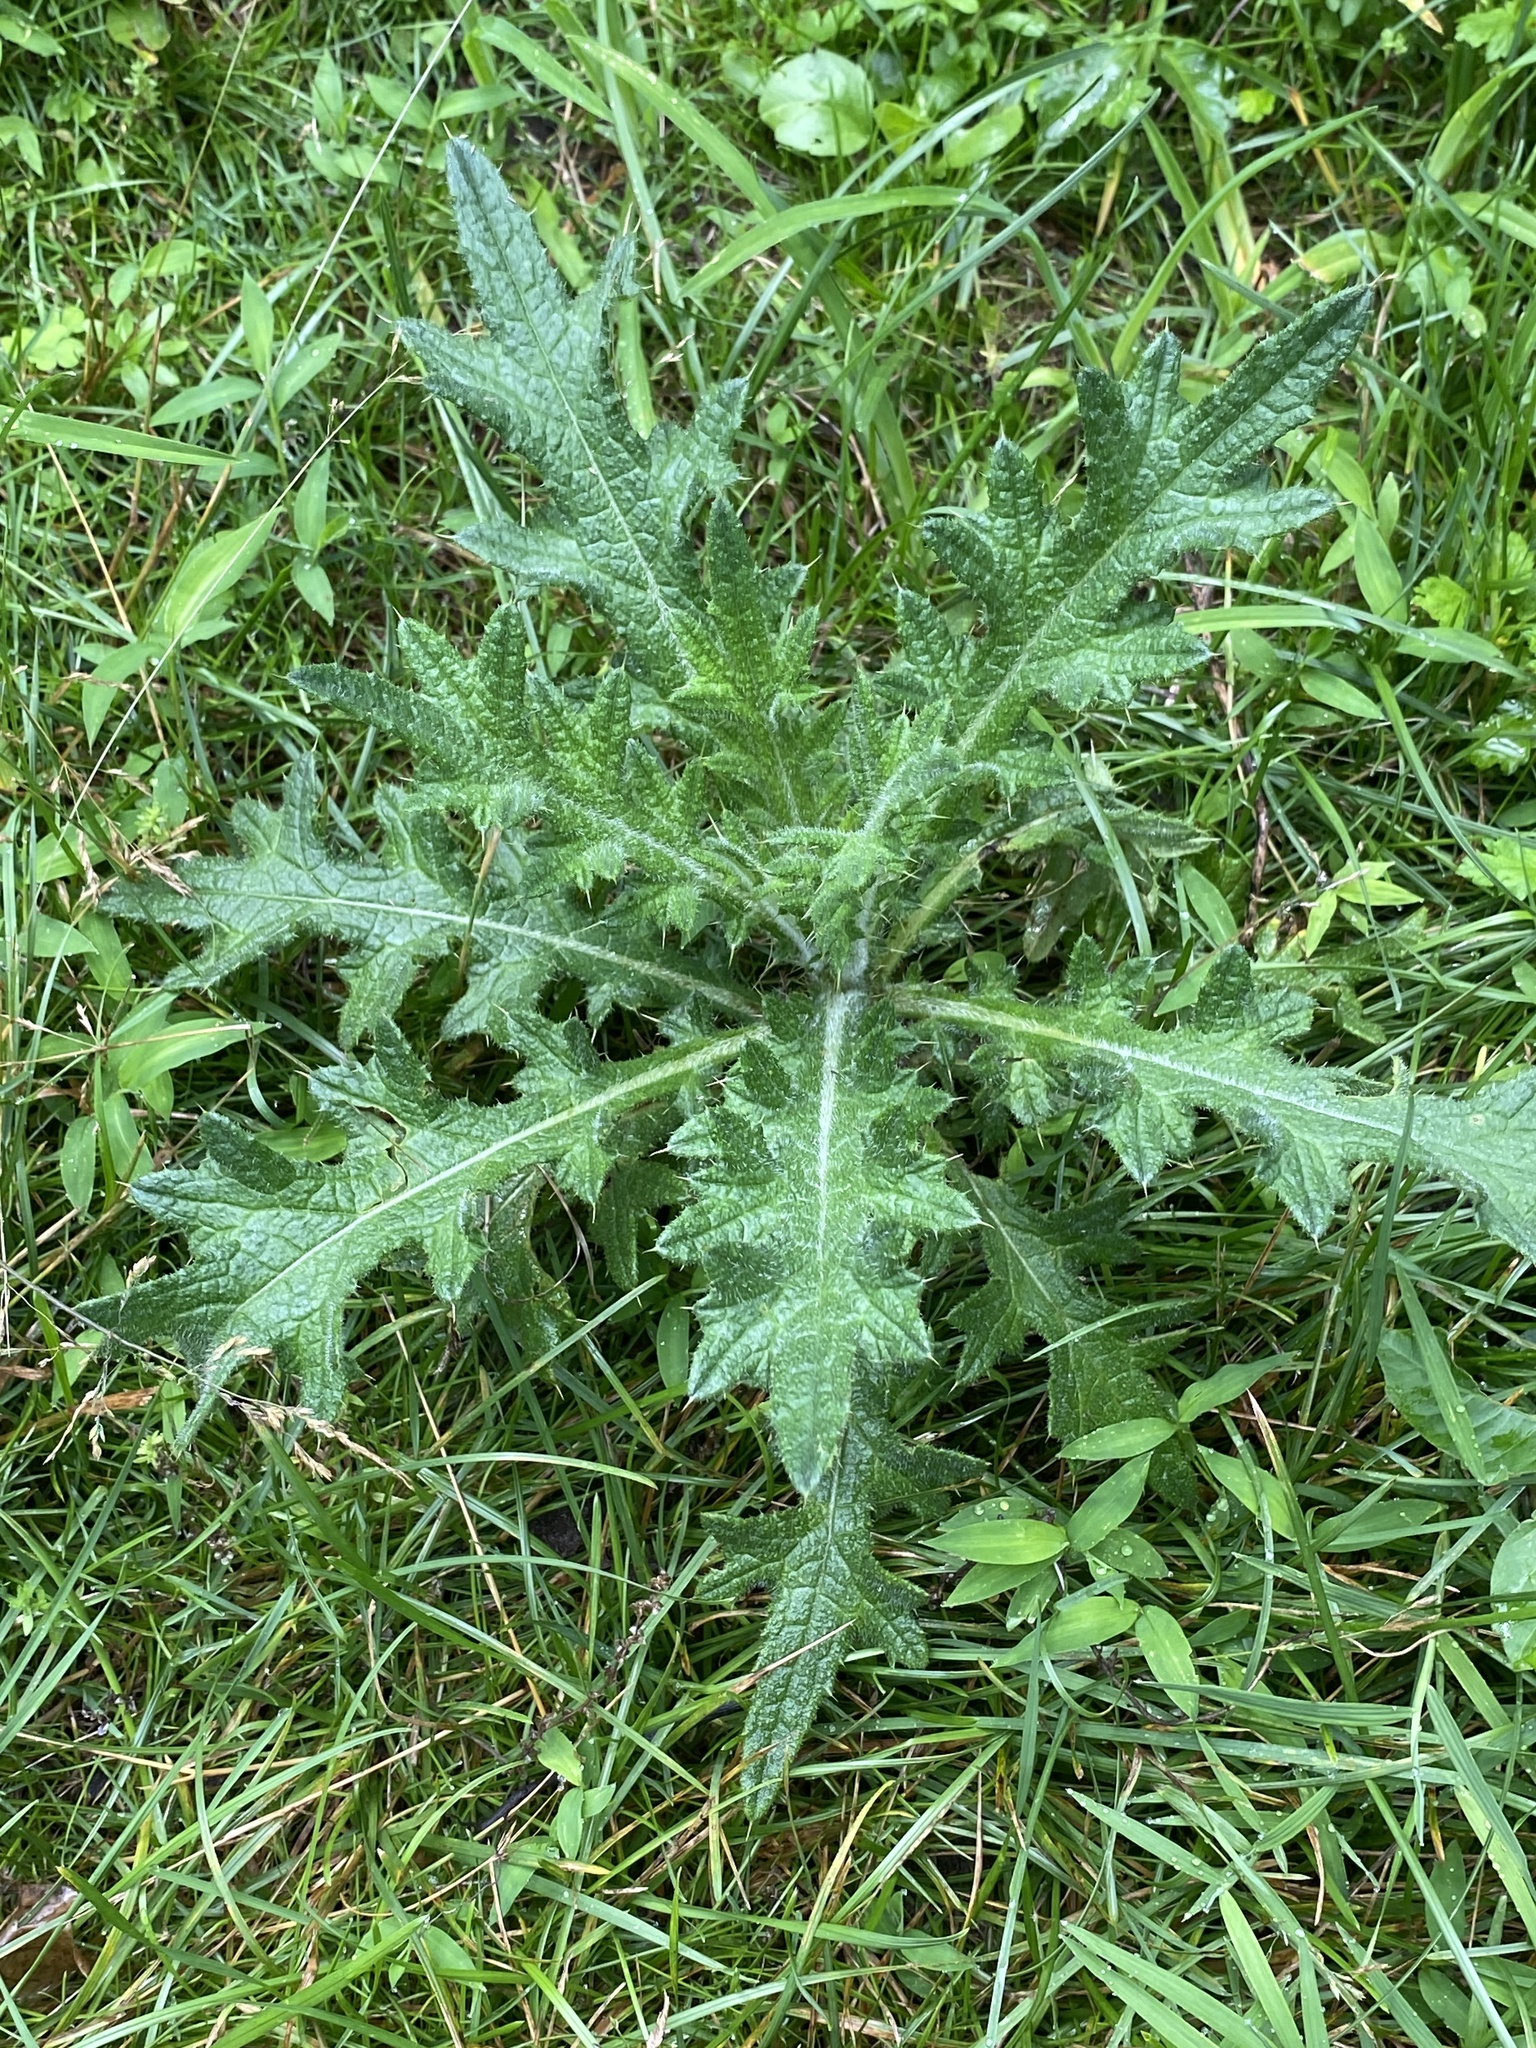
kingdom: Plantae
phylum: Tracheophyta
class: Magnoliopsida
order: Asterales
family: Asteraceae
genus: Cirsium
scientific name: Cirsium vulgare
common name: Bull thistle
